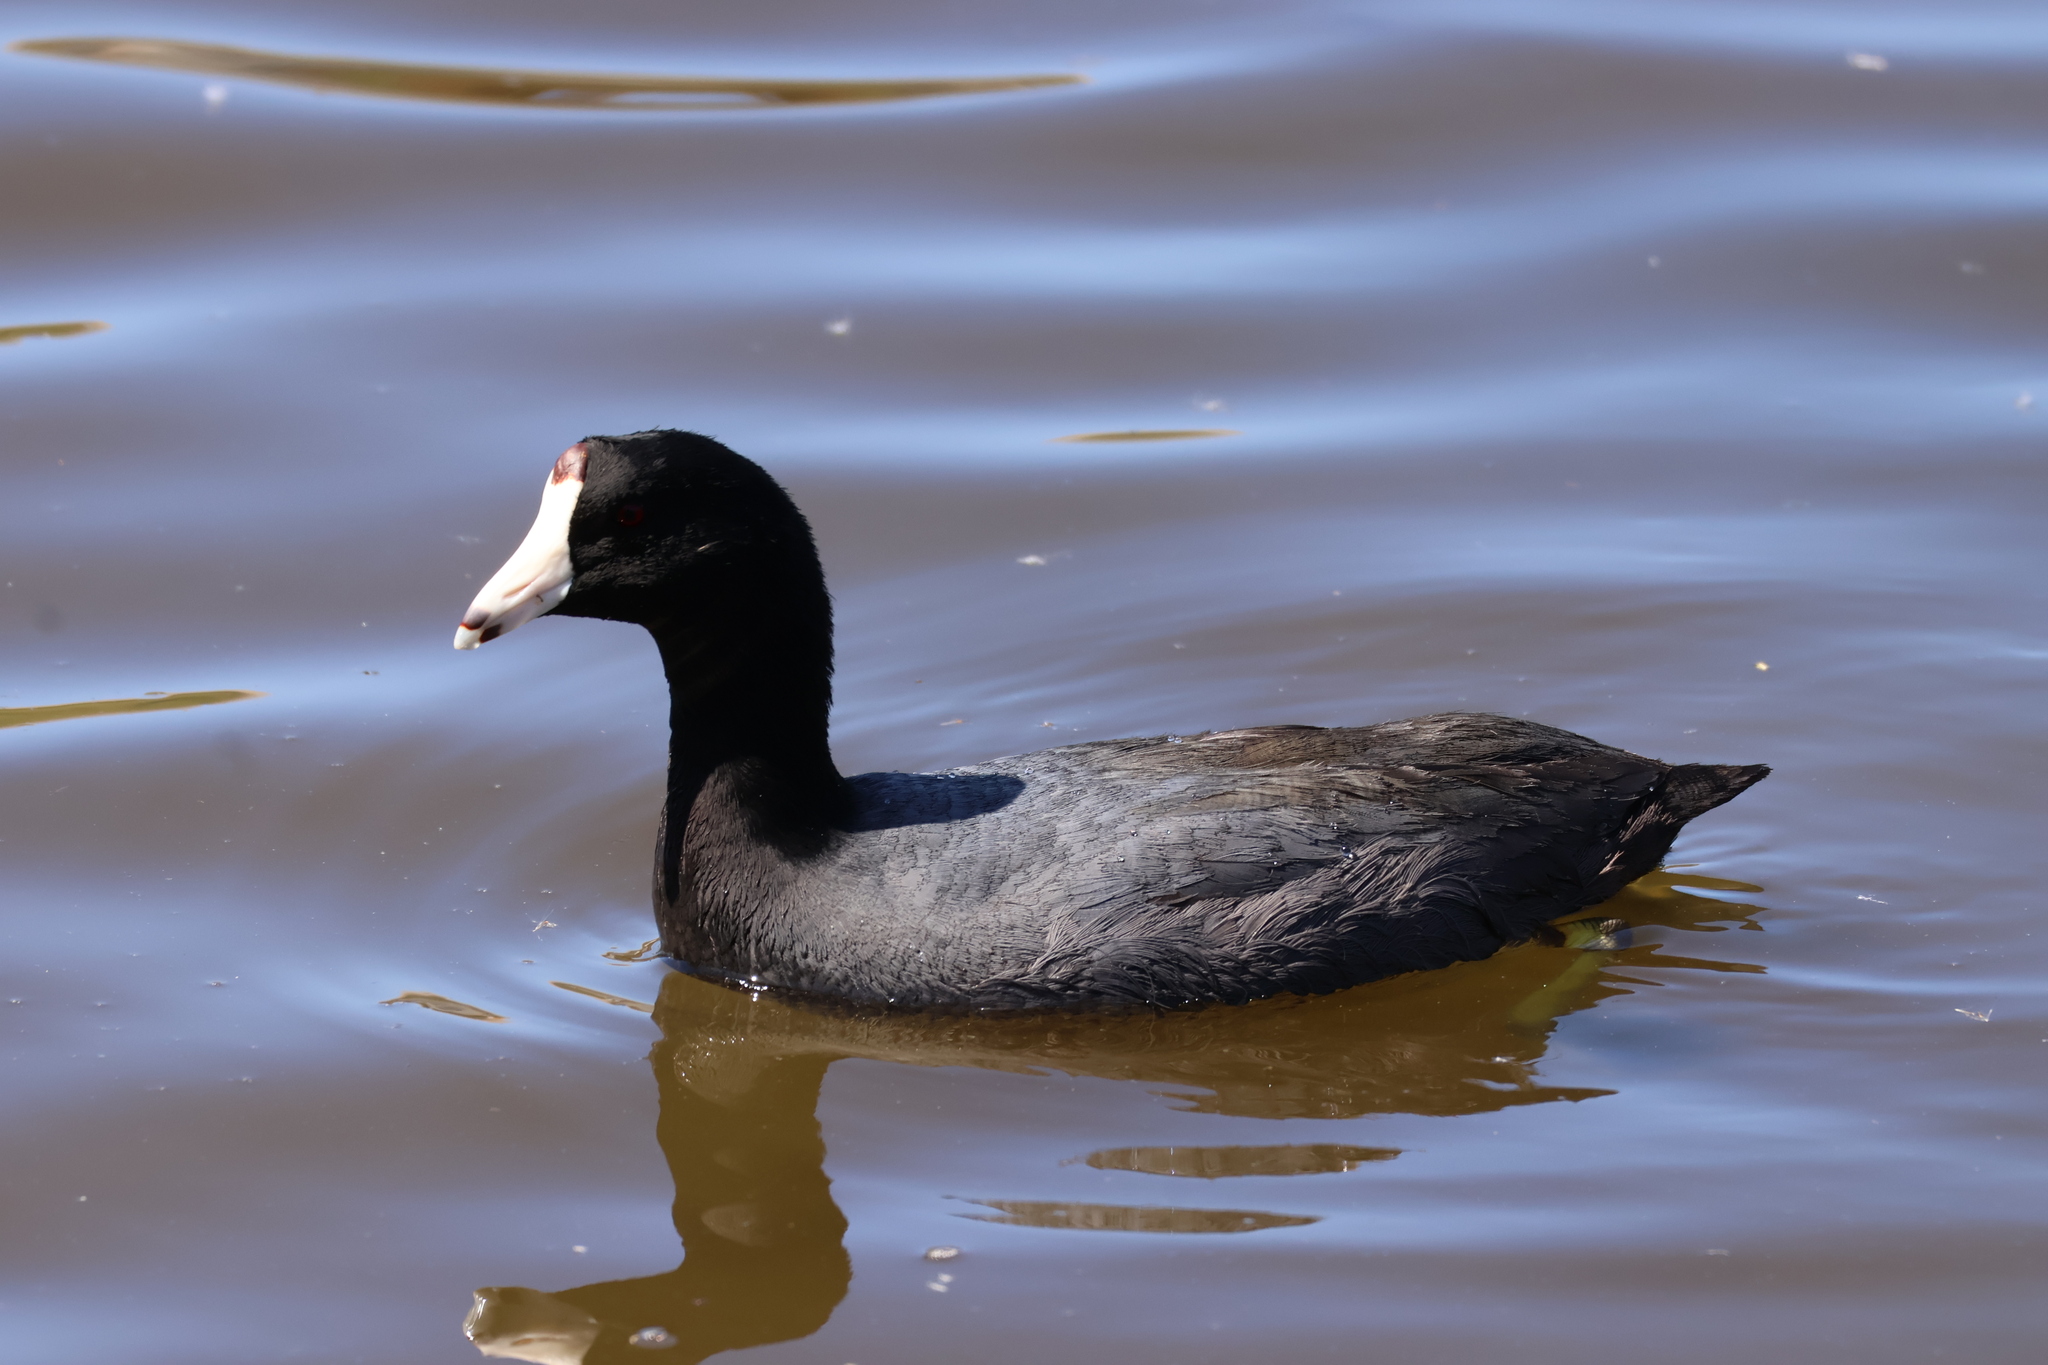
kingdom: Animalia
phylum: Chordata
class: Aves
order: Gruiformes
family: Rallidae
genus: Fulica
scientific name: Fulica americana
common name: American coot
